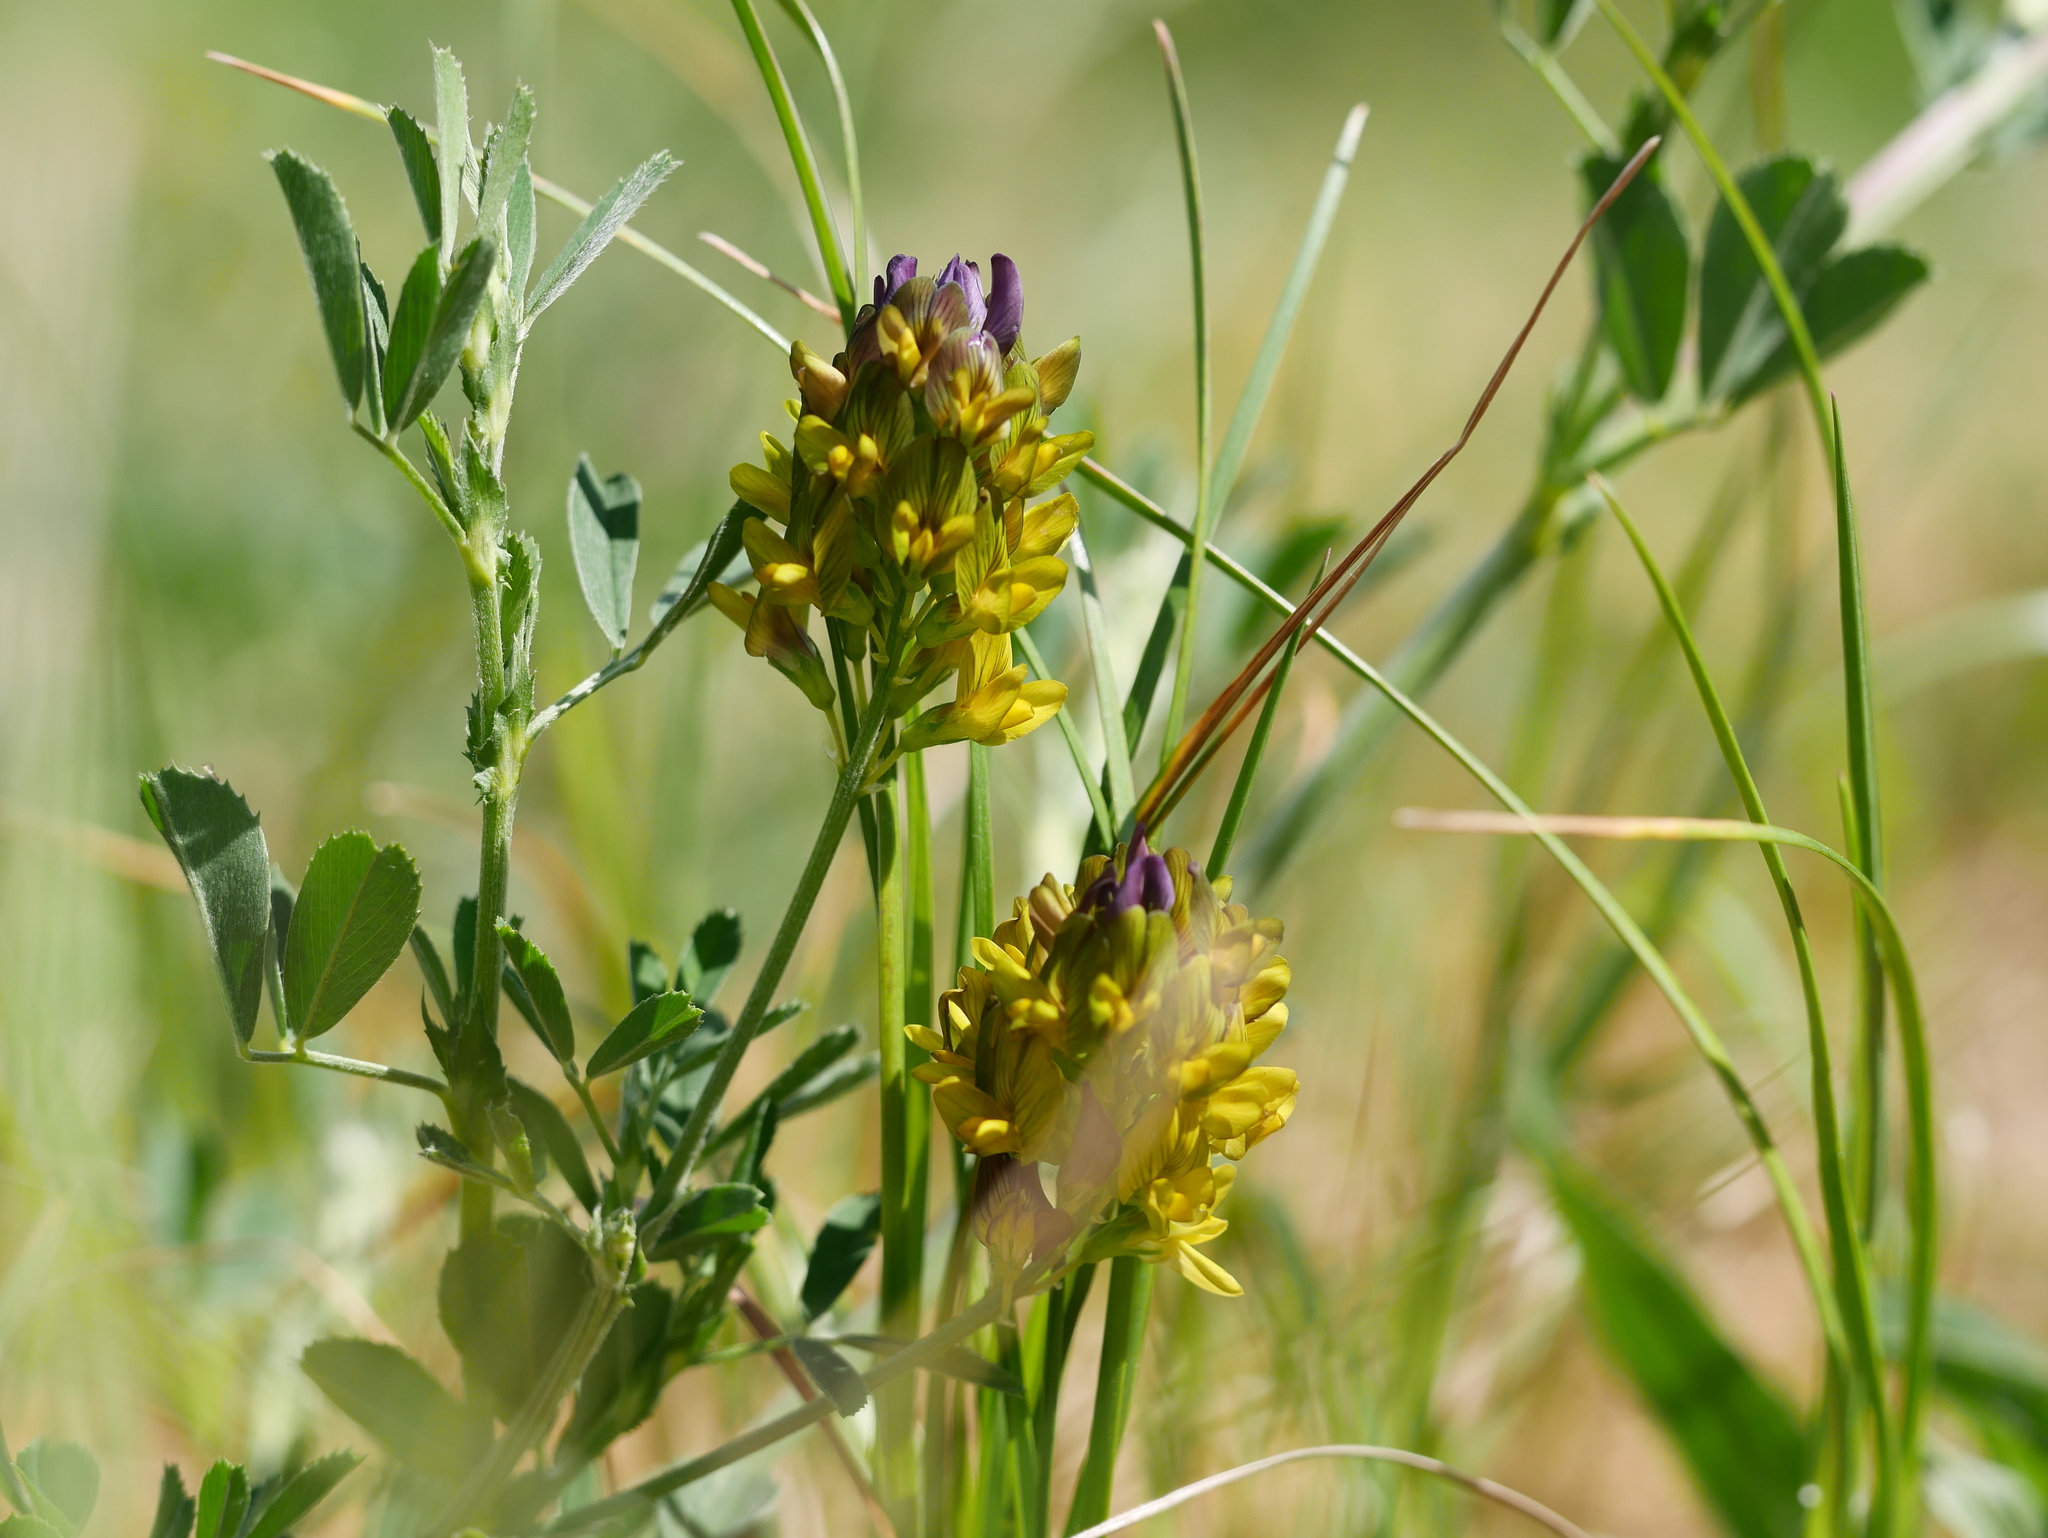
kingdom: Plantae
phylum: Tracheophyta
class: Magnoliopsida
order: Fabales
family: Fabaceae
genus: Medicago
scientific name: Medicago varia
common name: Sand lucerne
